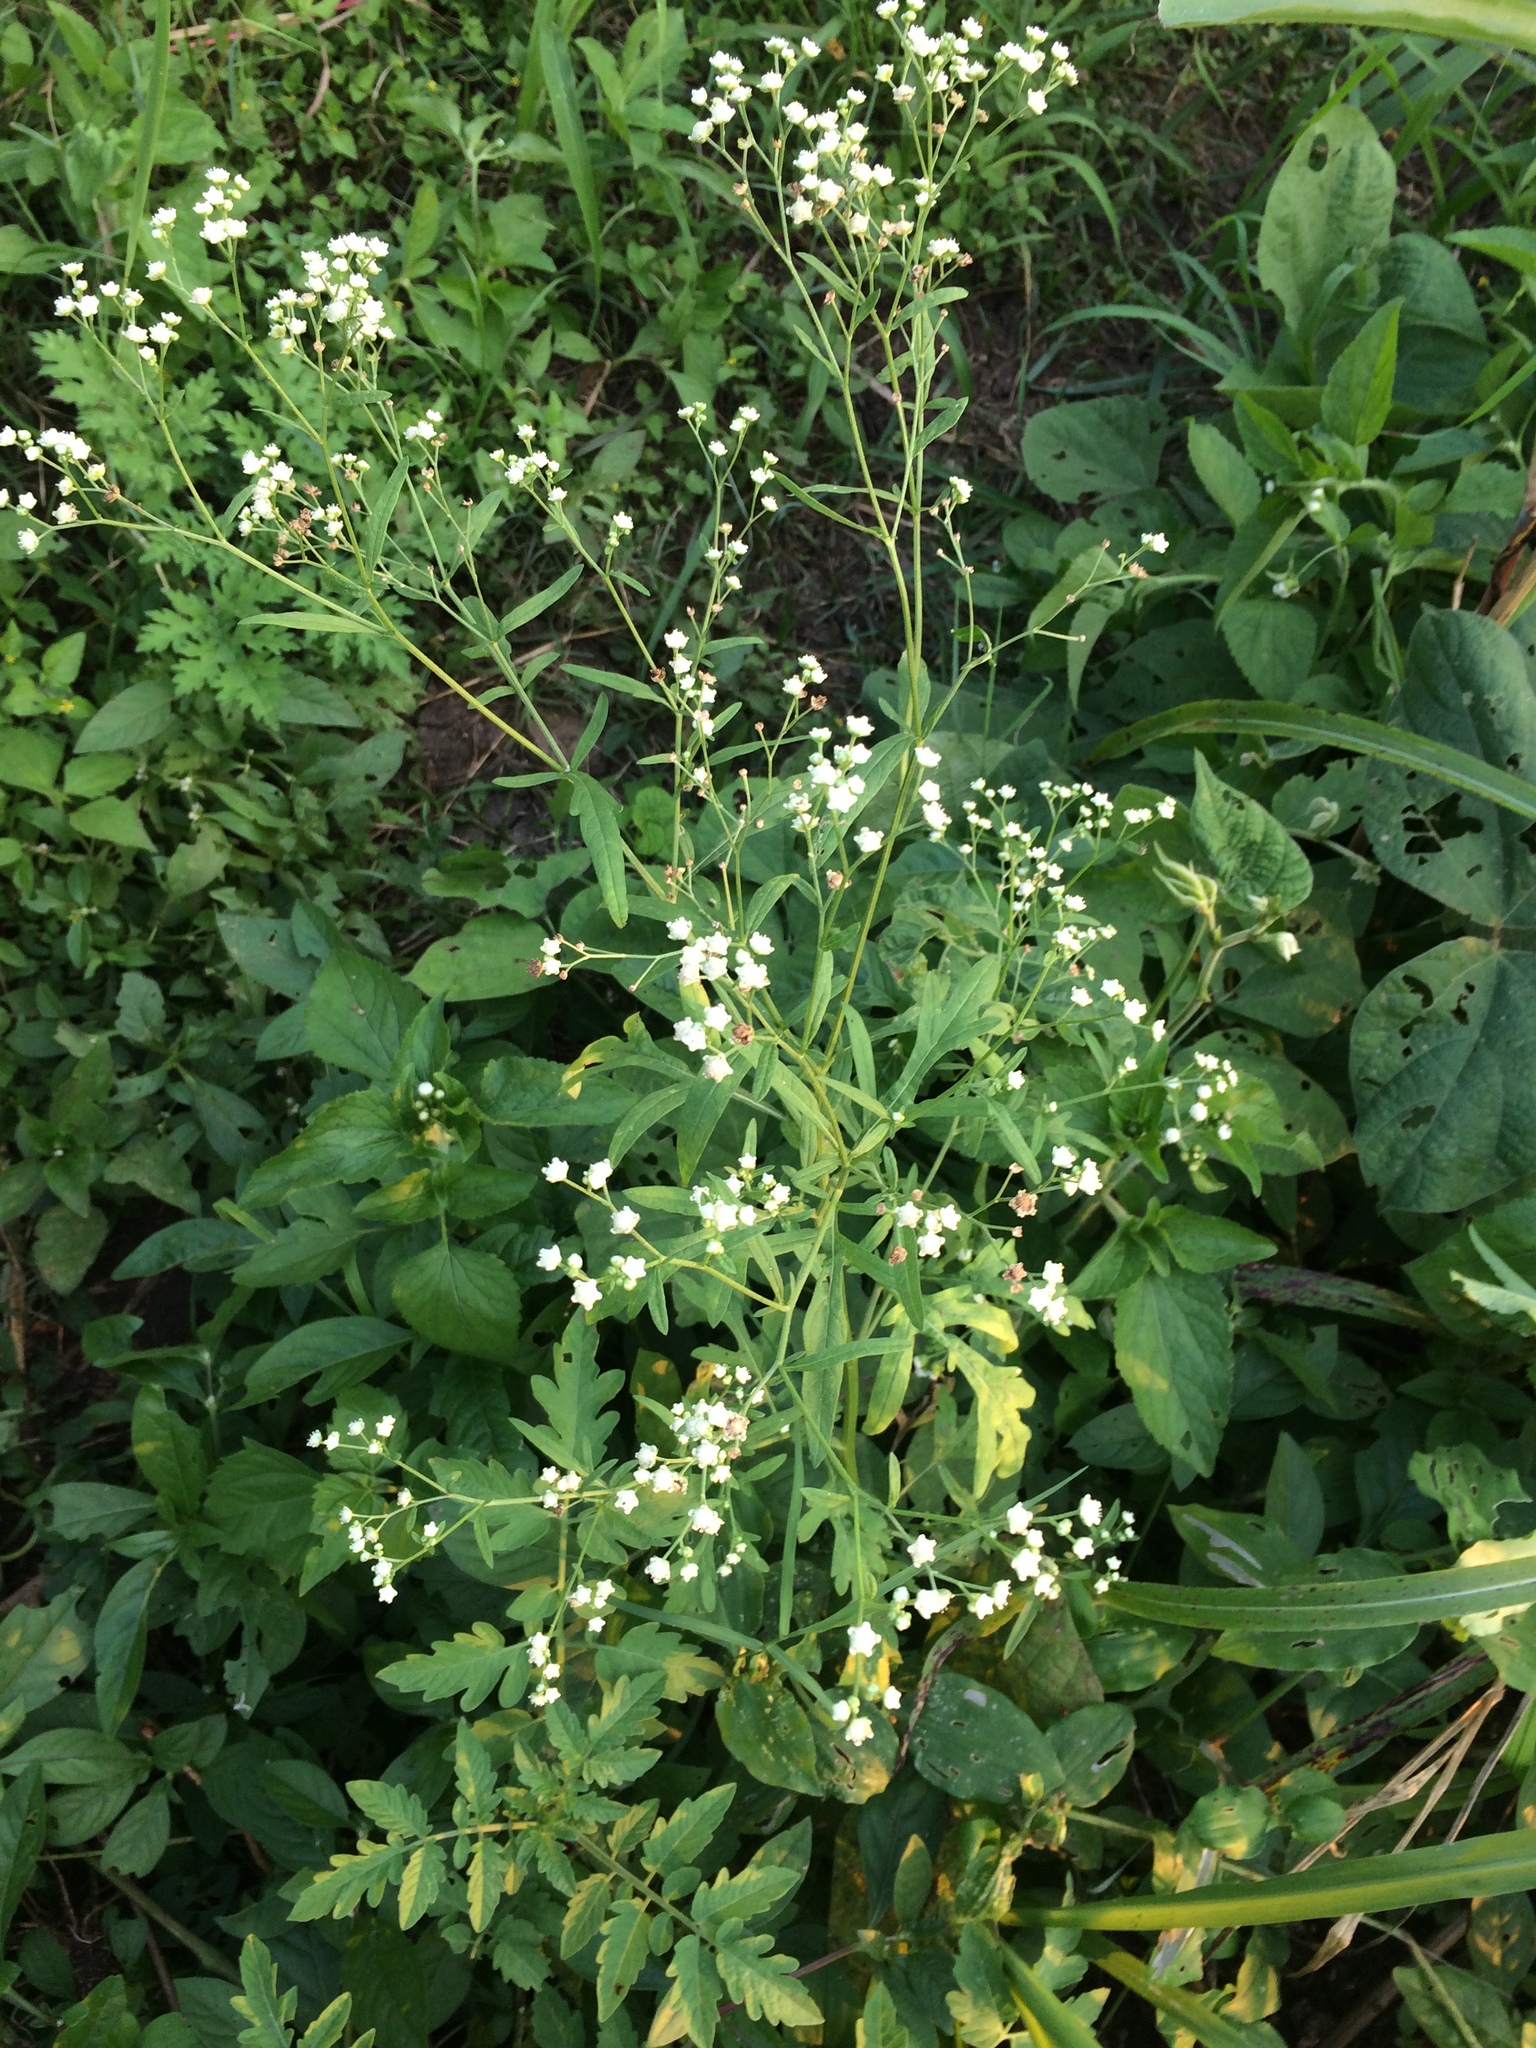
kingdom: Plantae
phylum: Tracheophyta
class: Magnoliopsida
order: Asterales
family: Asteraceae
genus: Parthenium
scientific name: Parthenium hysterophorus
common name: Santa maria feverfew
